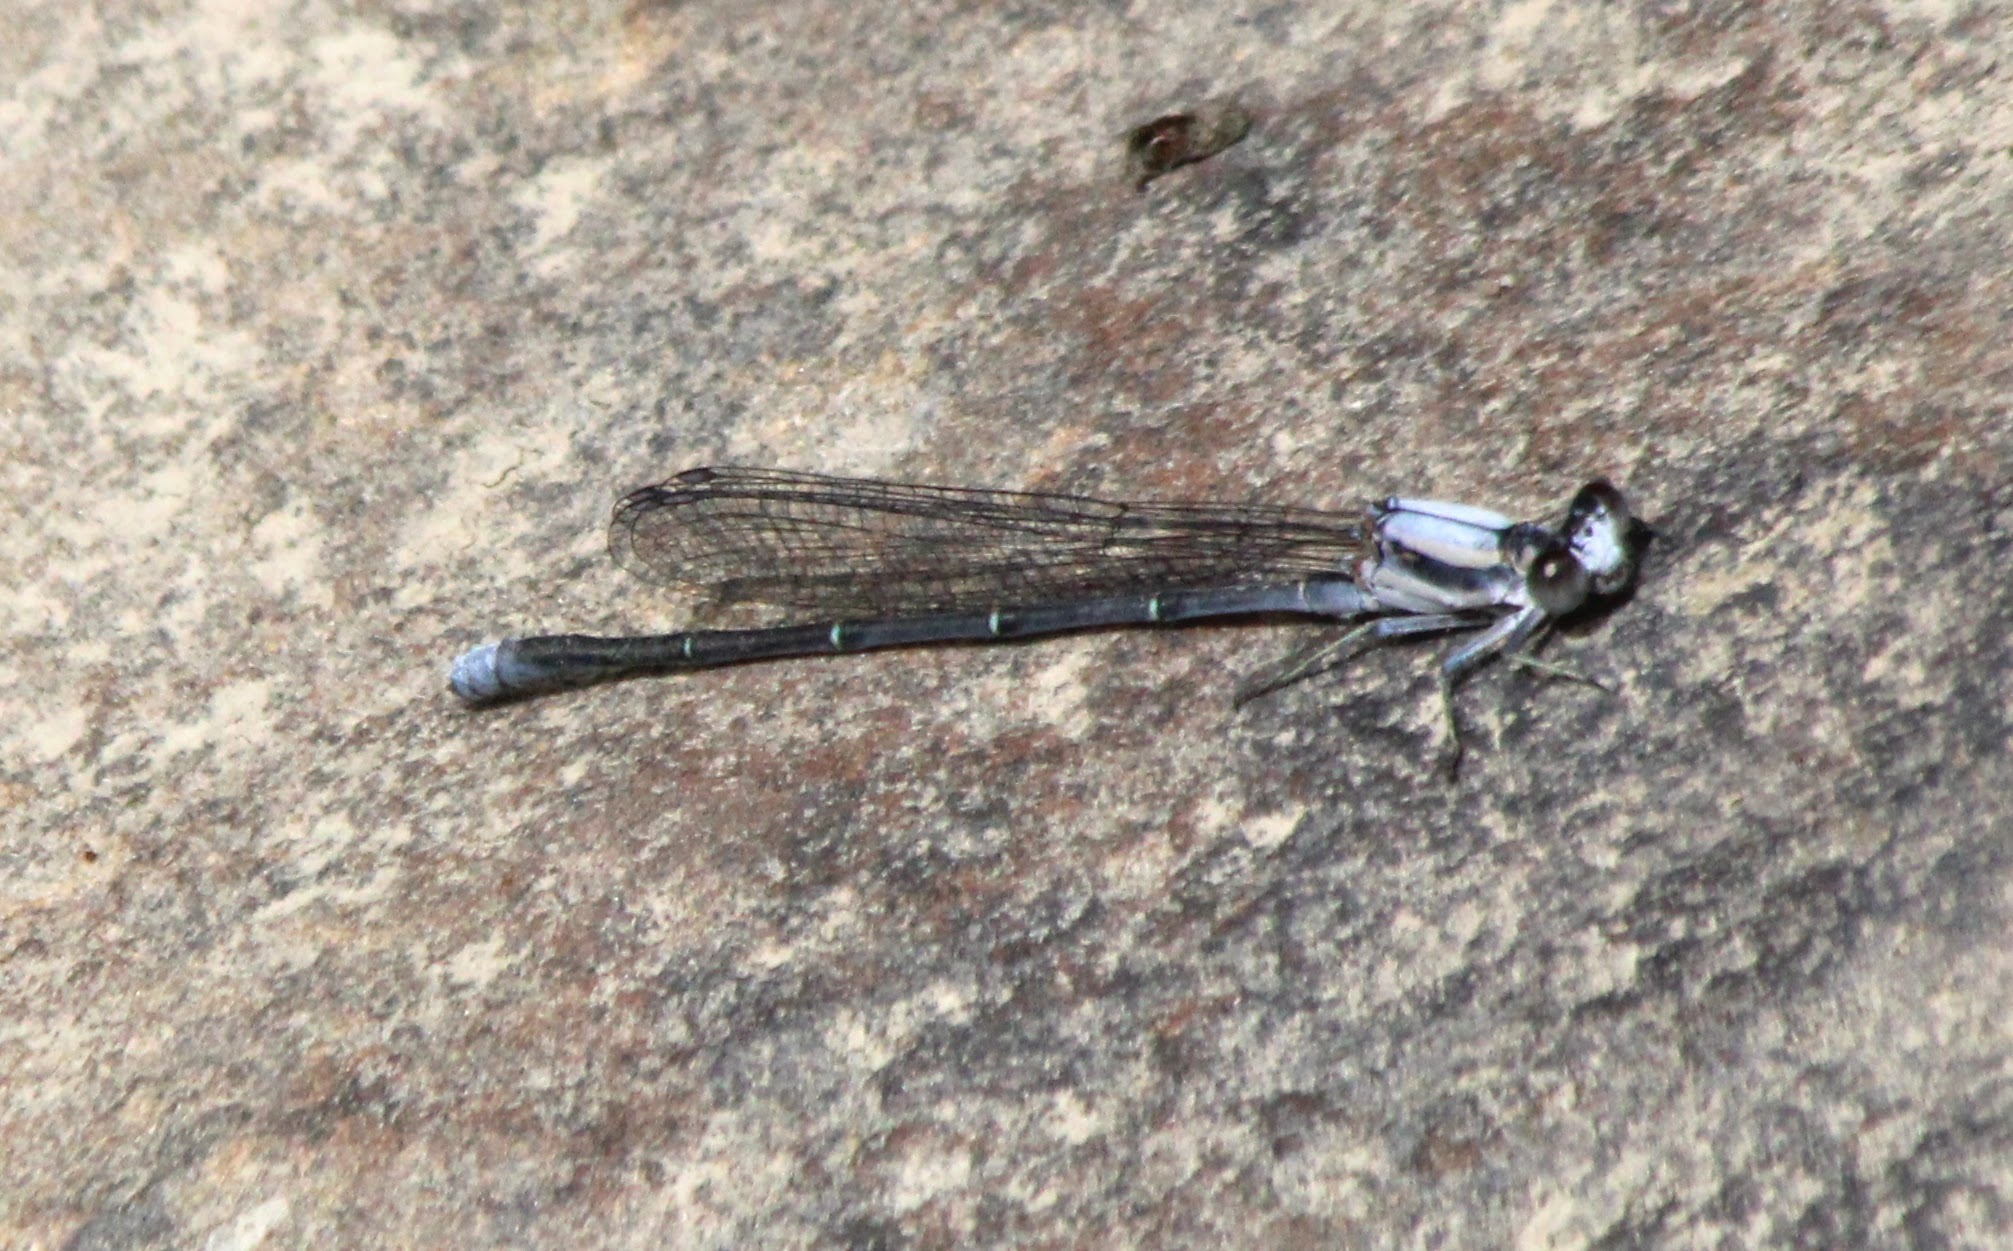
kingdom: Animalia
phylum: Arthropoda
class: Insecta
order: Odonata
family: Coenagrionidae
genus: Argia
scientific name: Argia moesta
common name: Powdered dancer
